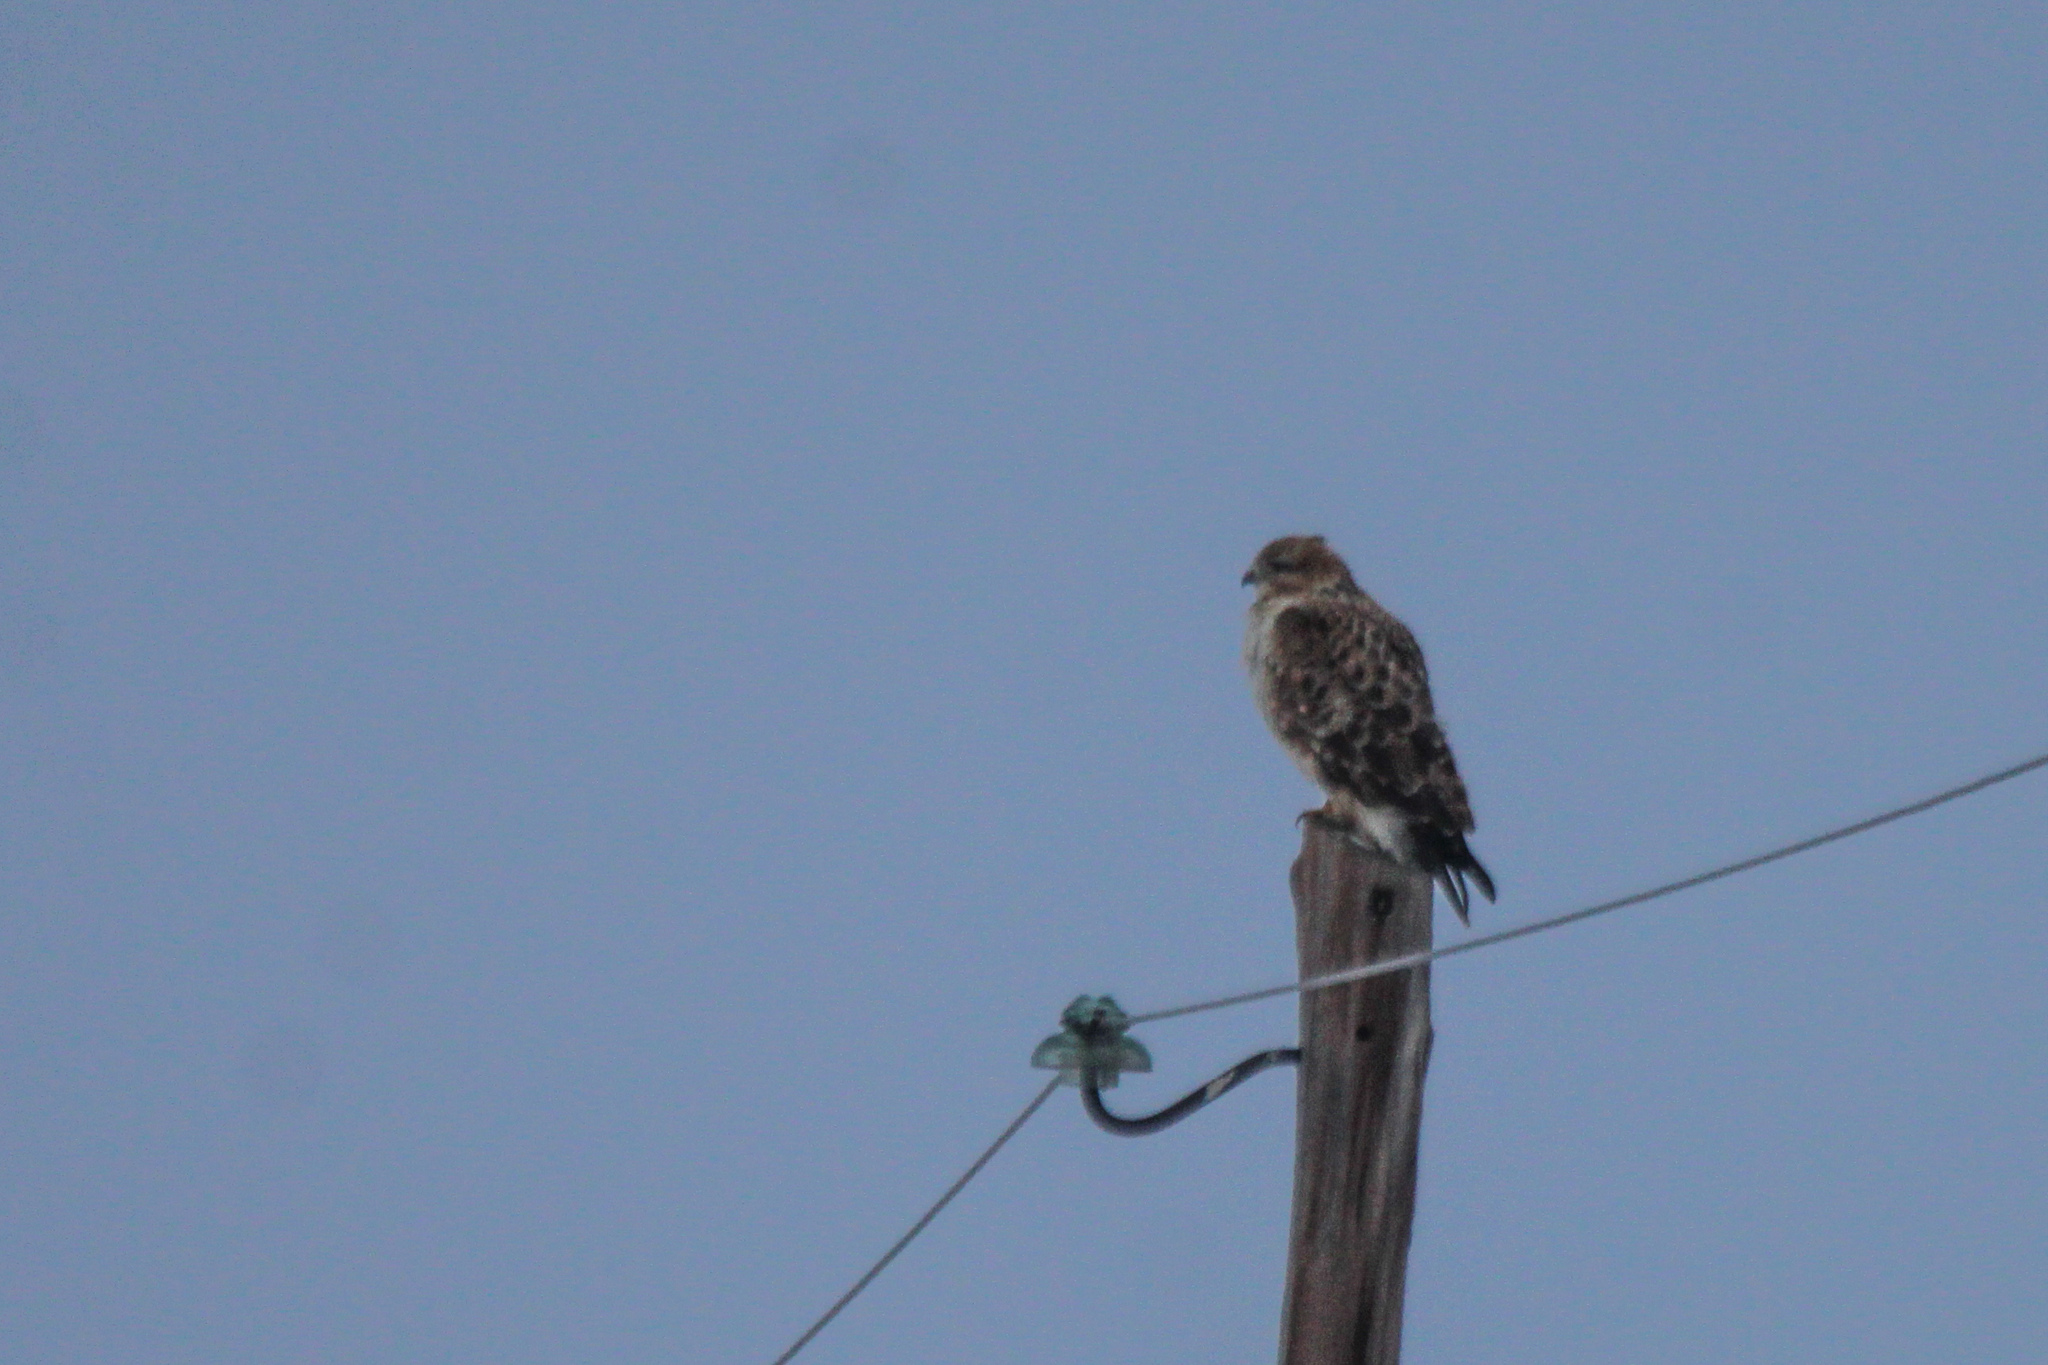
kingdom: Animalia
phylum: Chordata
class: Aves
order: Accipitriformes
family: Accipitridae
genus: Buteo
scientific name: Buteo hemilasius
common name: Upland buzzard
